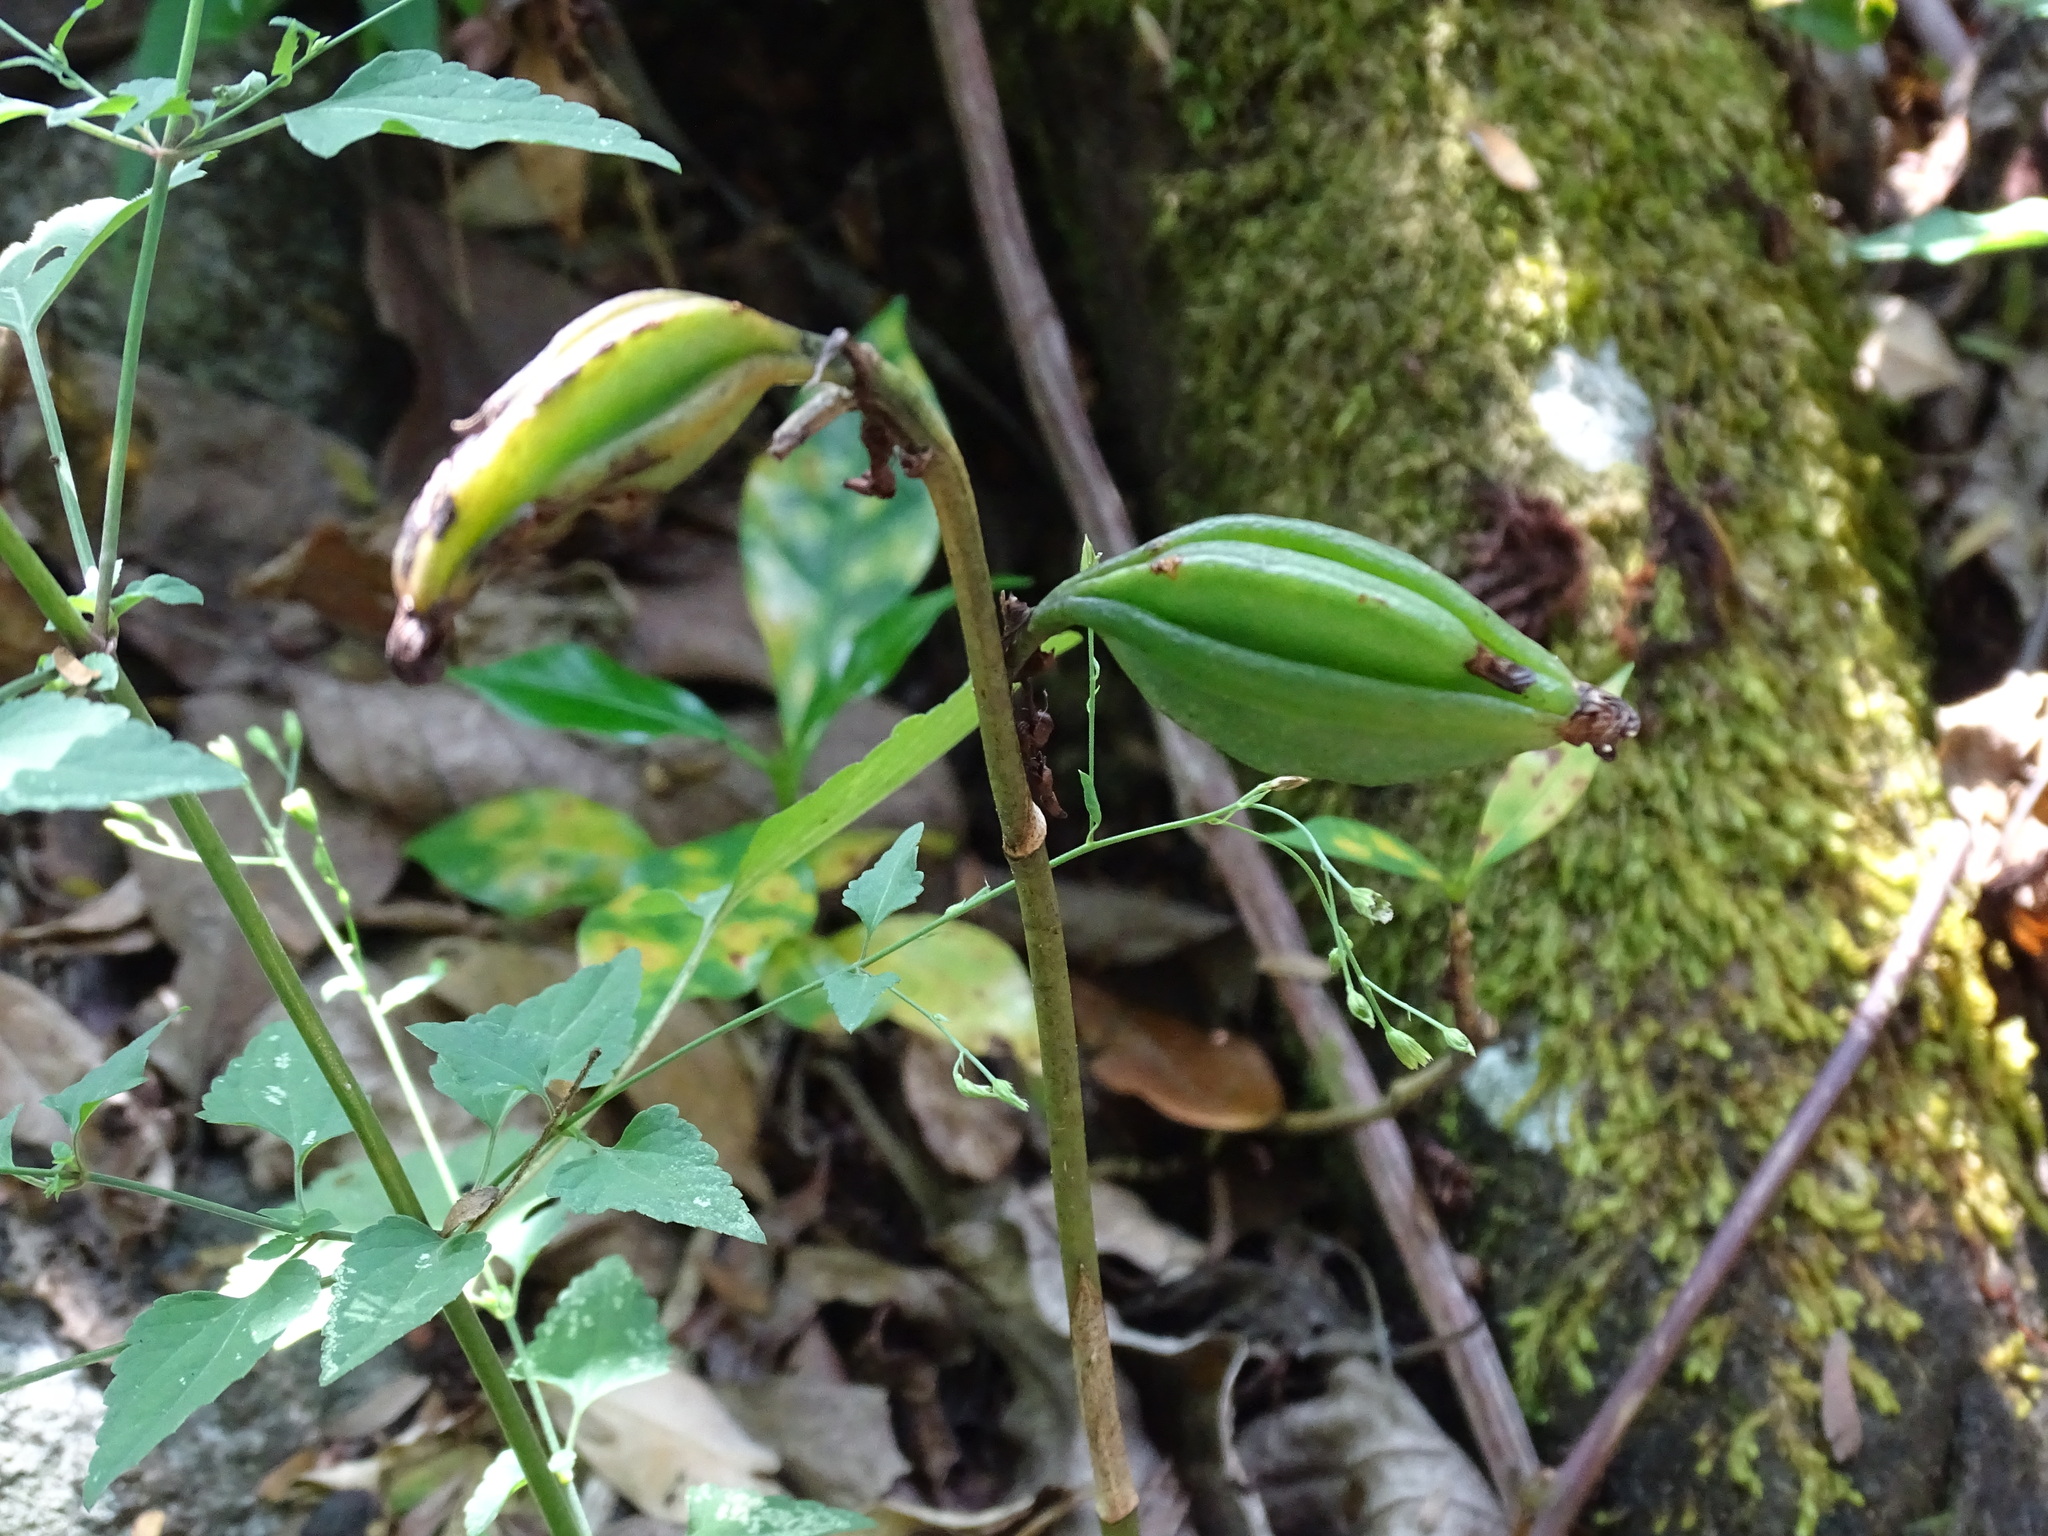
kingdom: Plantae
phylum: Tracheophyta
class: Liliopsida
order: Asparagales
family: Orchidaceae
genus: Eulophia
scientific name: Eulophia maculata
